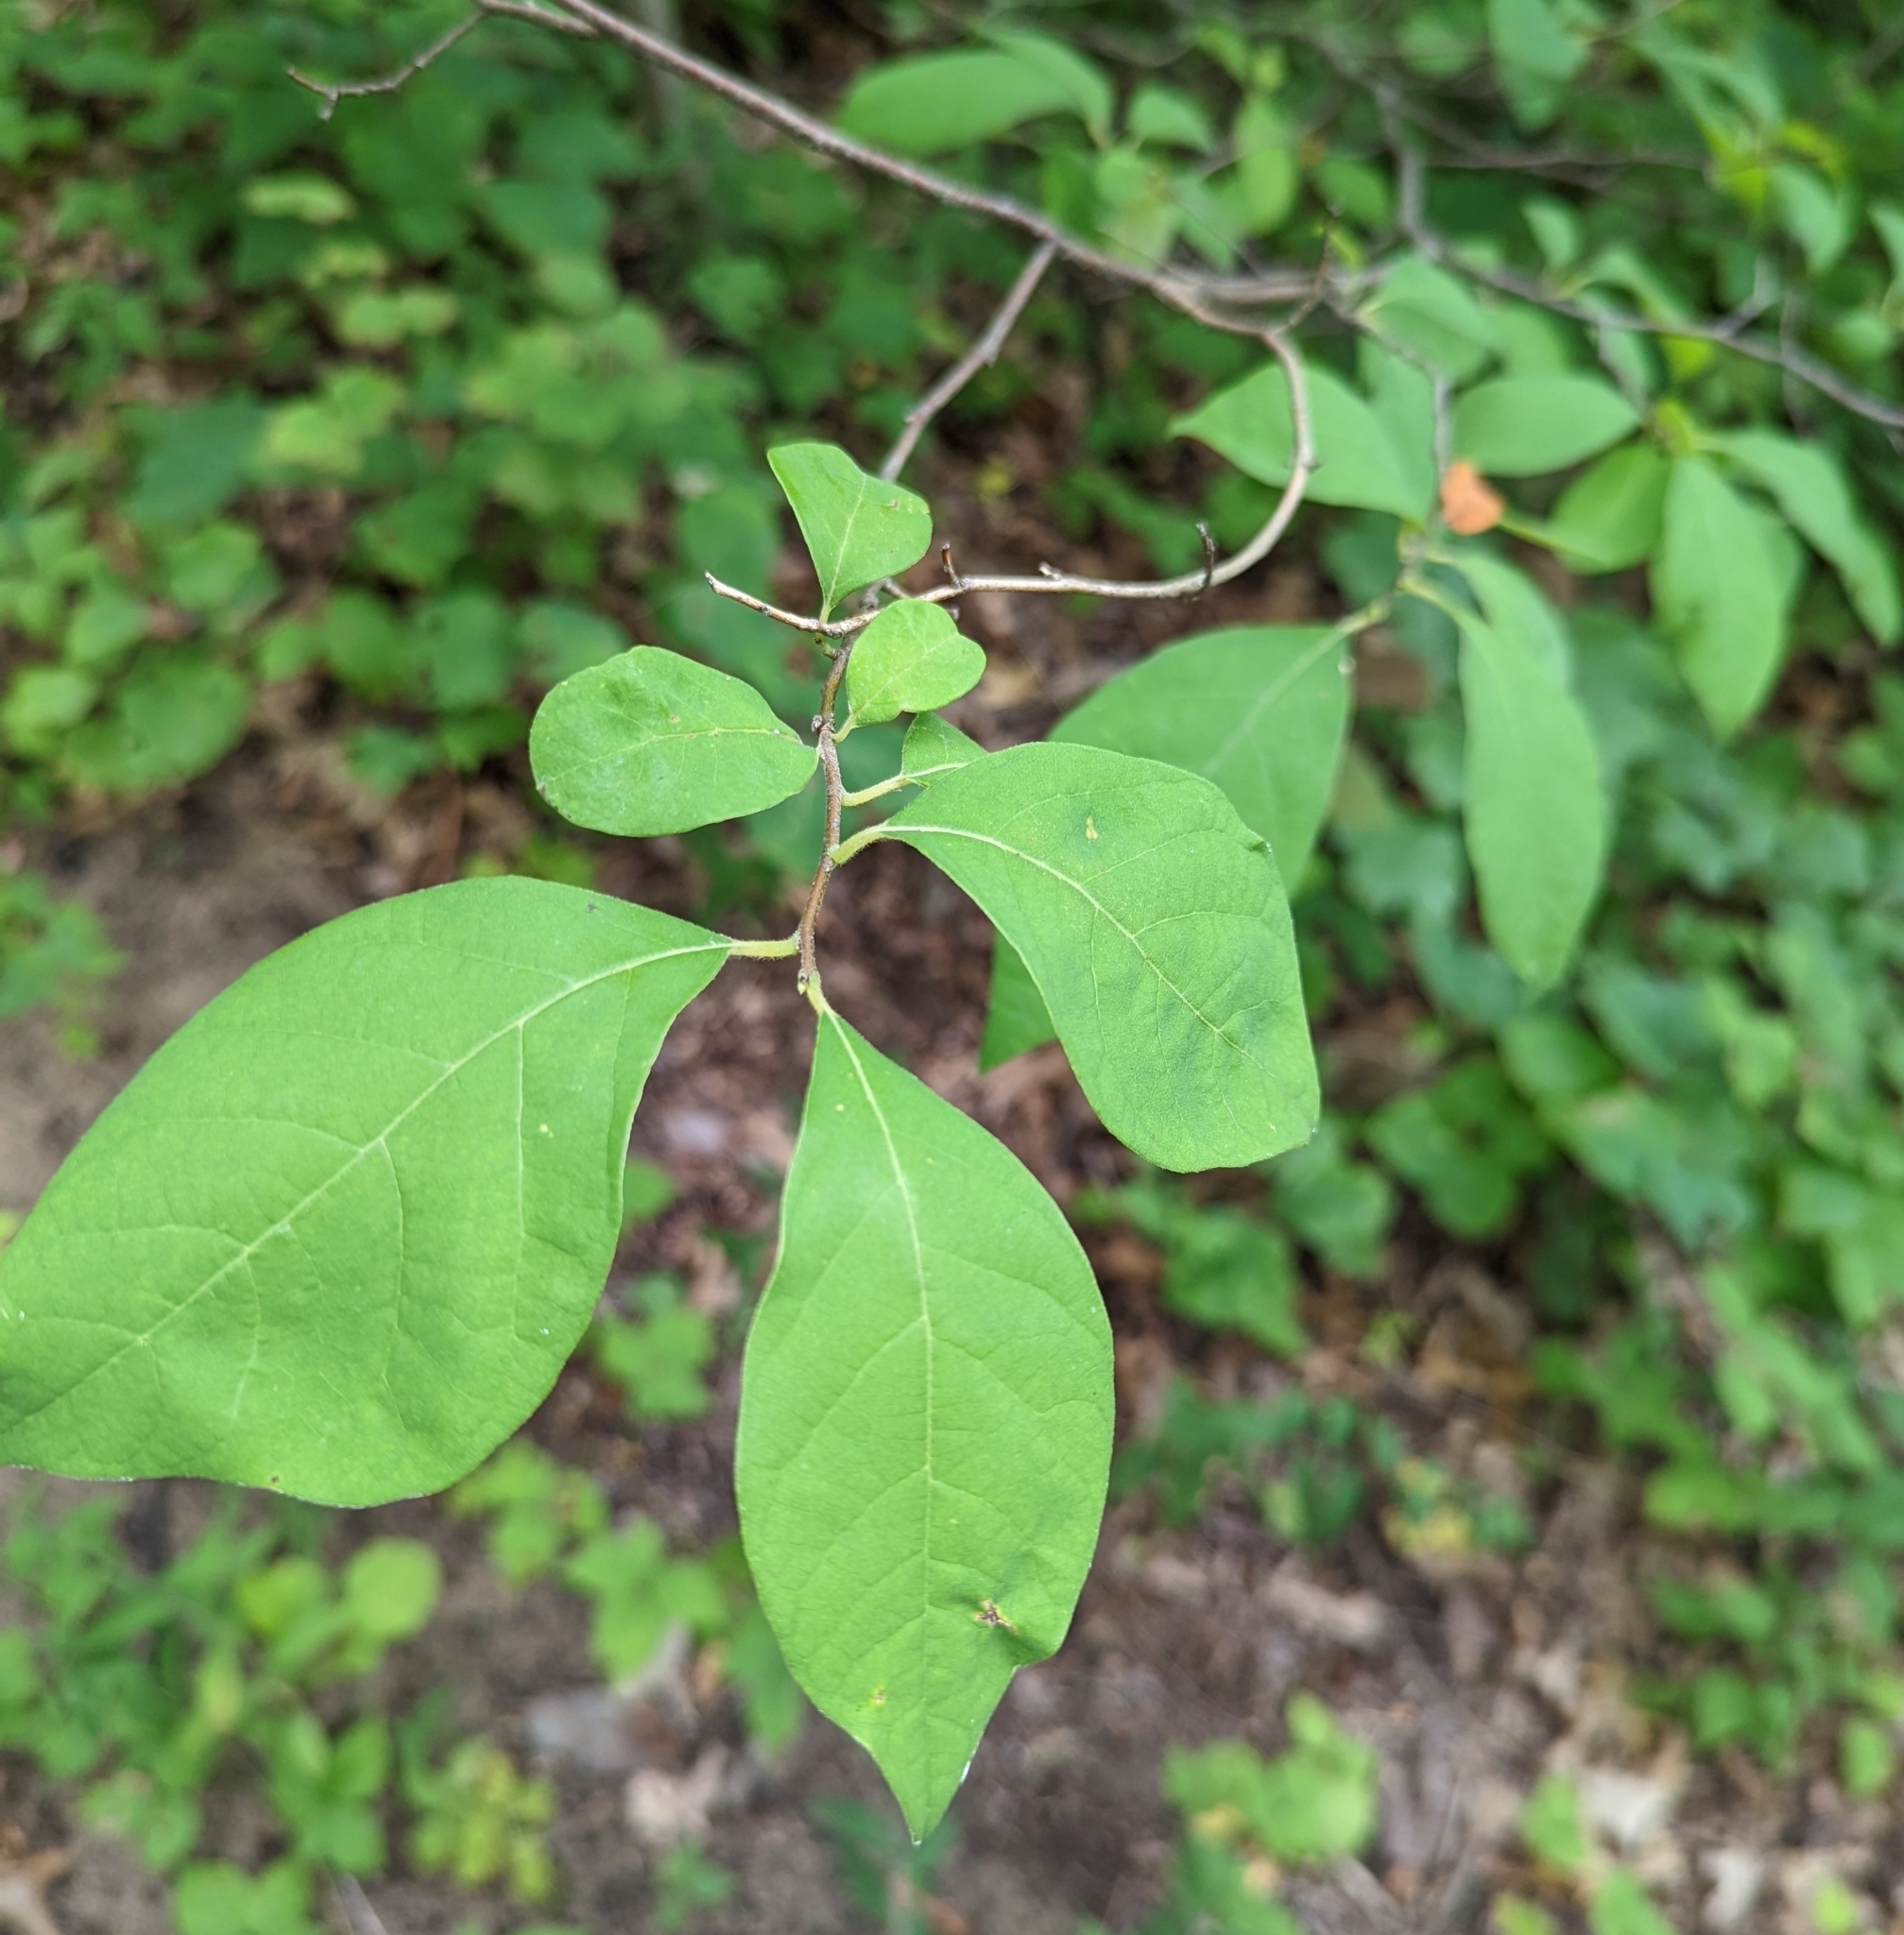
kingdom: Plantae
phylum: Tracheophyta
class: Magnoliopsida
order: Laurales
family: Lauraceae
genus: Lindera
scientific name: Lindera benzoin
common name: Spicebush
